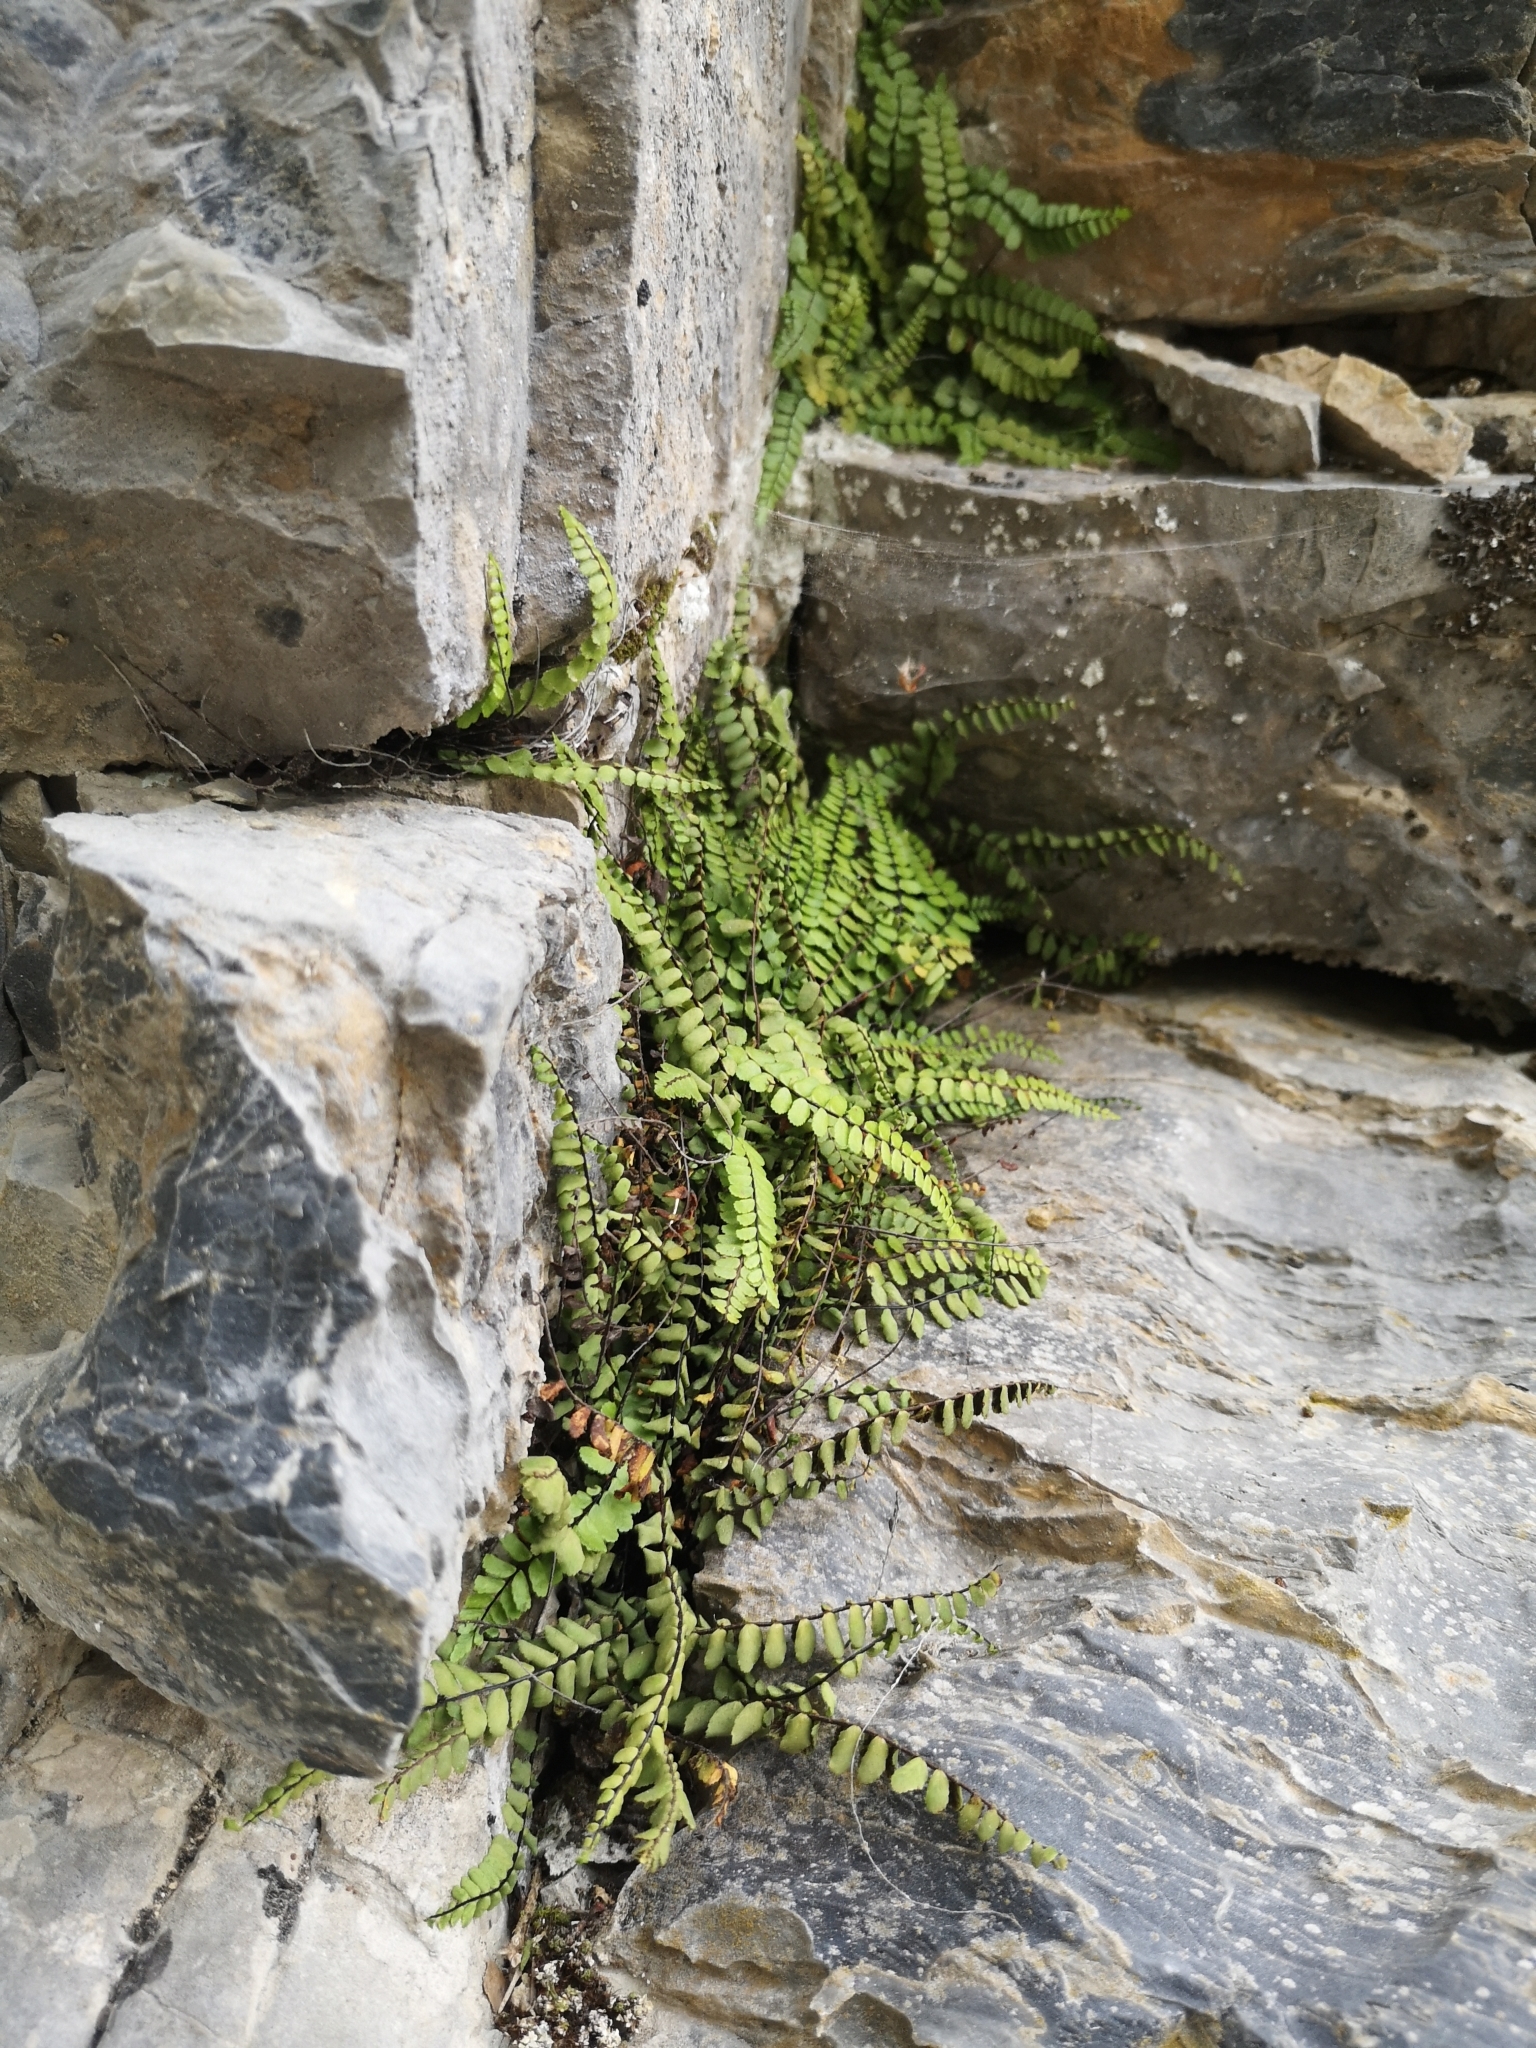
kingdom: Plantae
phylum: Tracheophyta
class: Polypodiopsida
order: Polypodiales
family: Aspleniaceae
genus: Asplenium
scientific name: Asplenium trichomanes
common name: Maidenhair spleenwort
